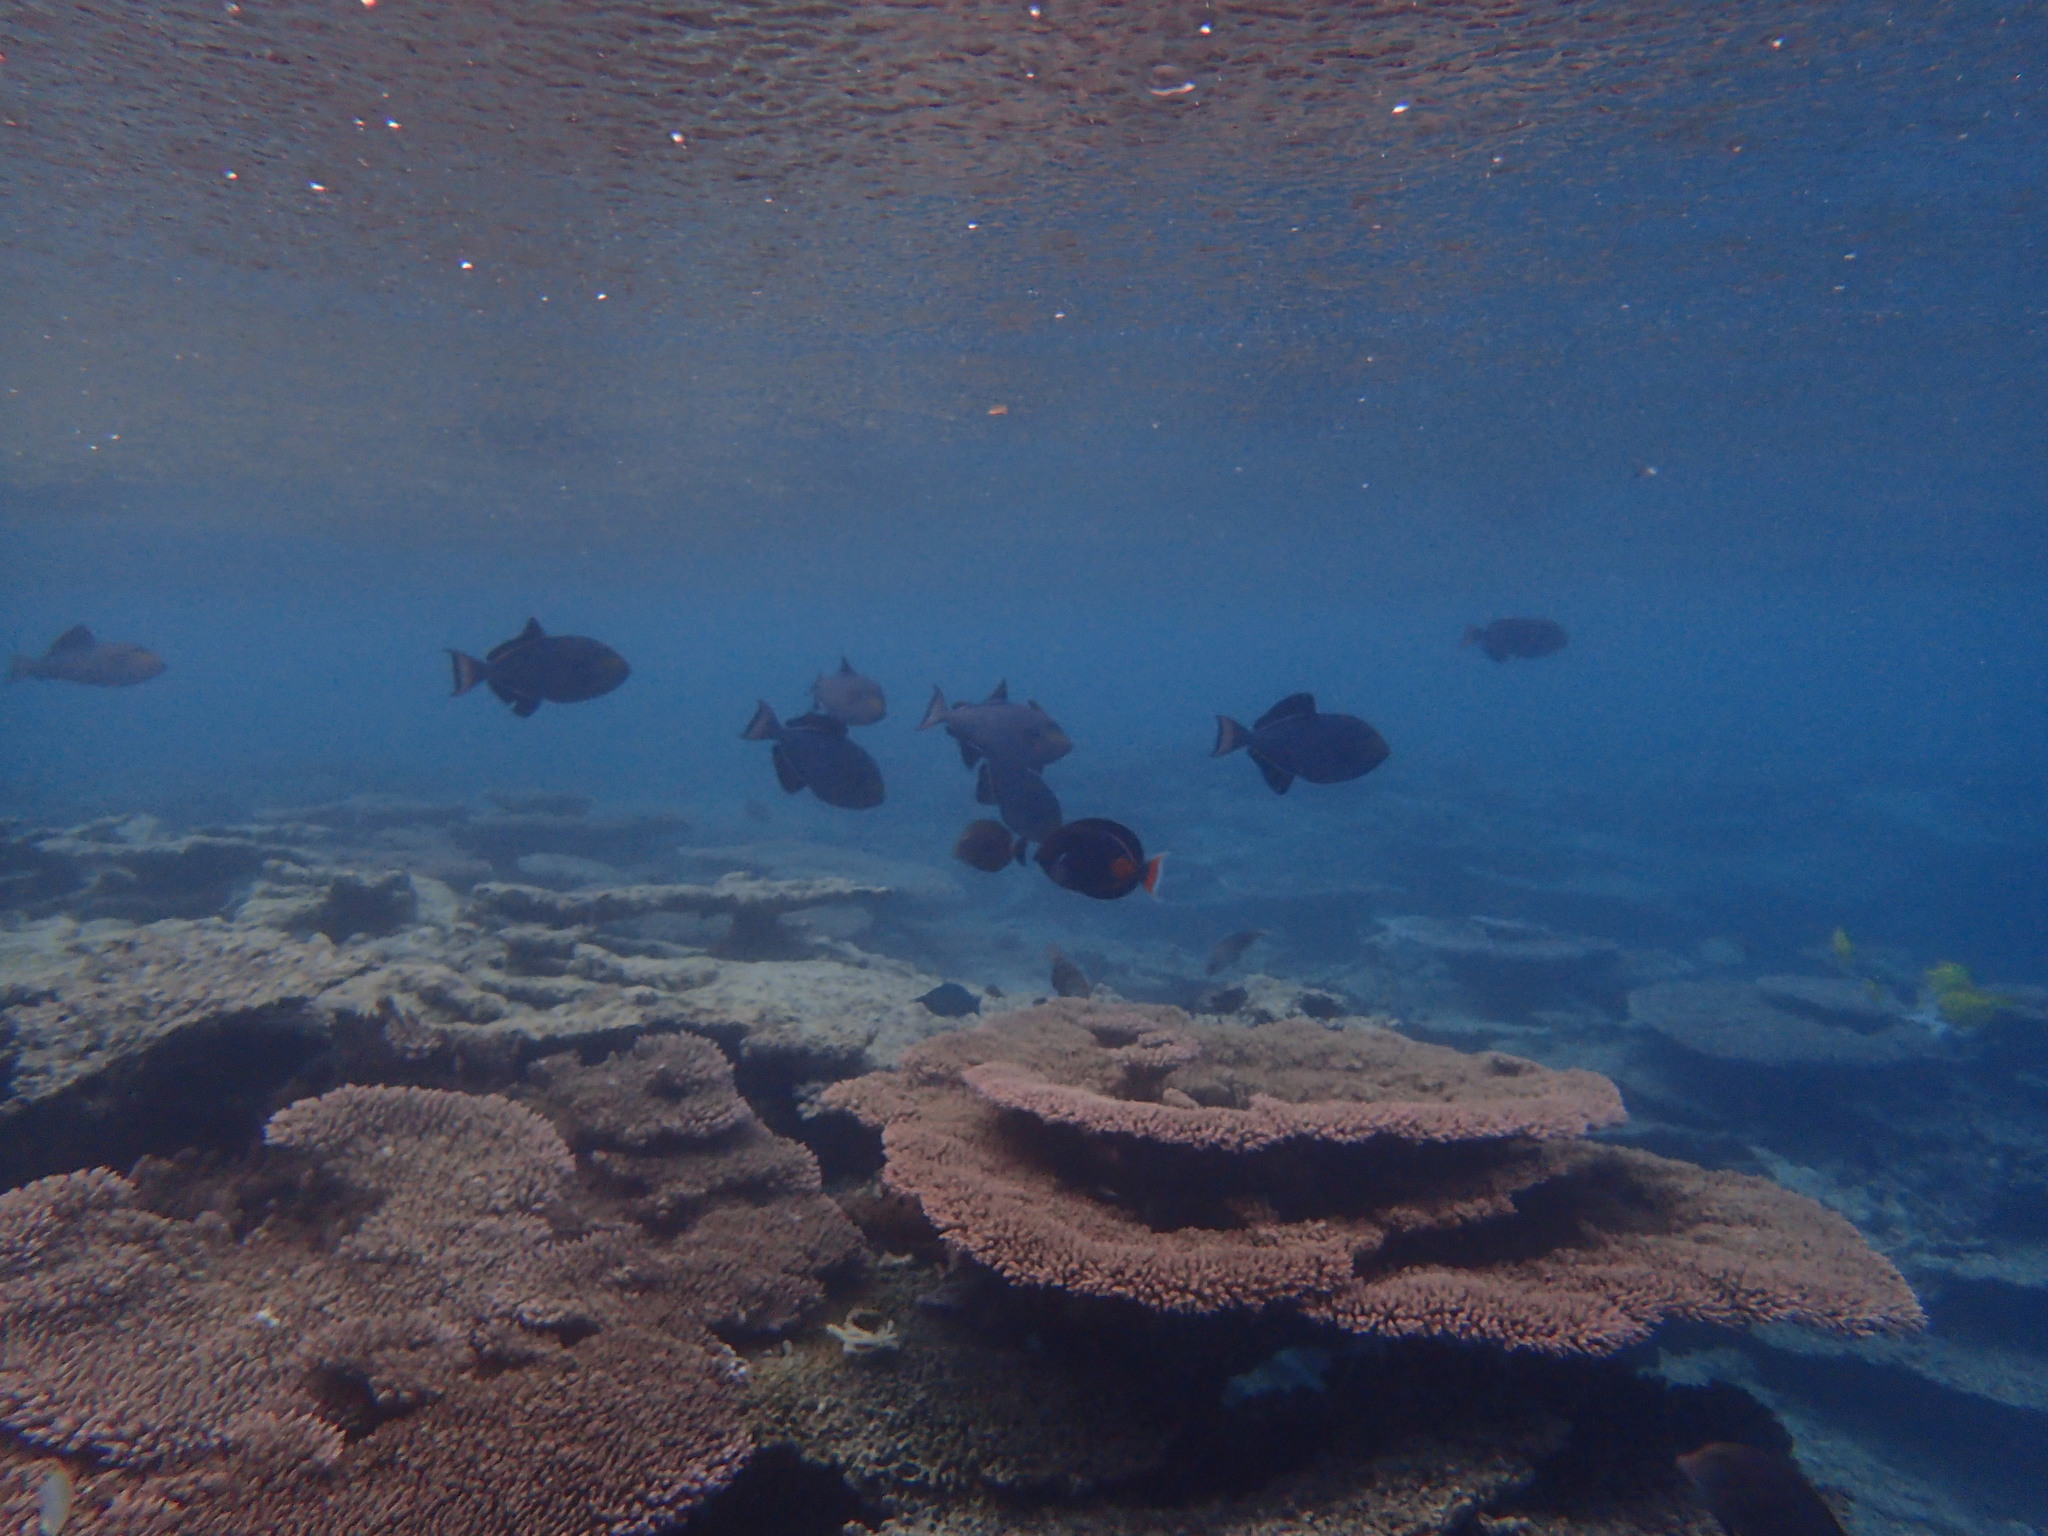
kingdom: Animalia
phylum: Chordata
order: Tetraodontiformes
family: Balistidae
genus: Melichthys
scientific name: Melichthys niger
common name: Black durgon
